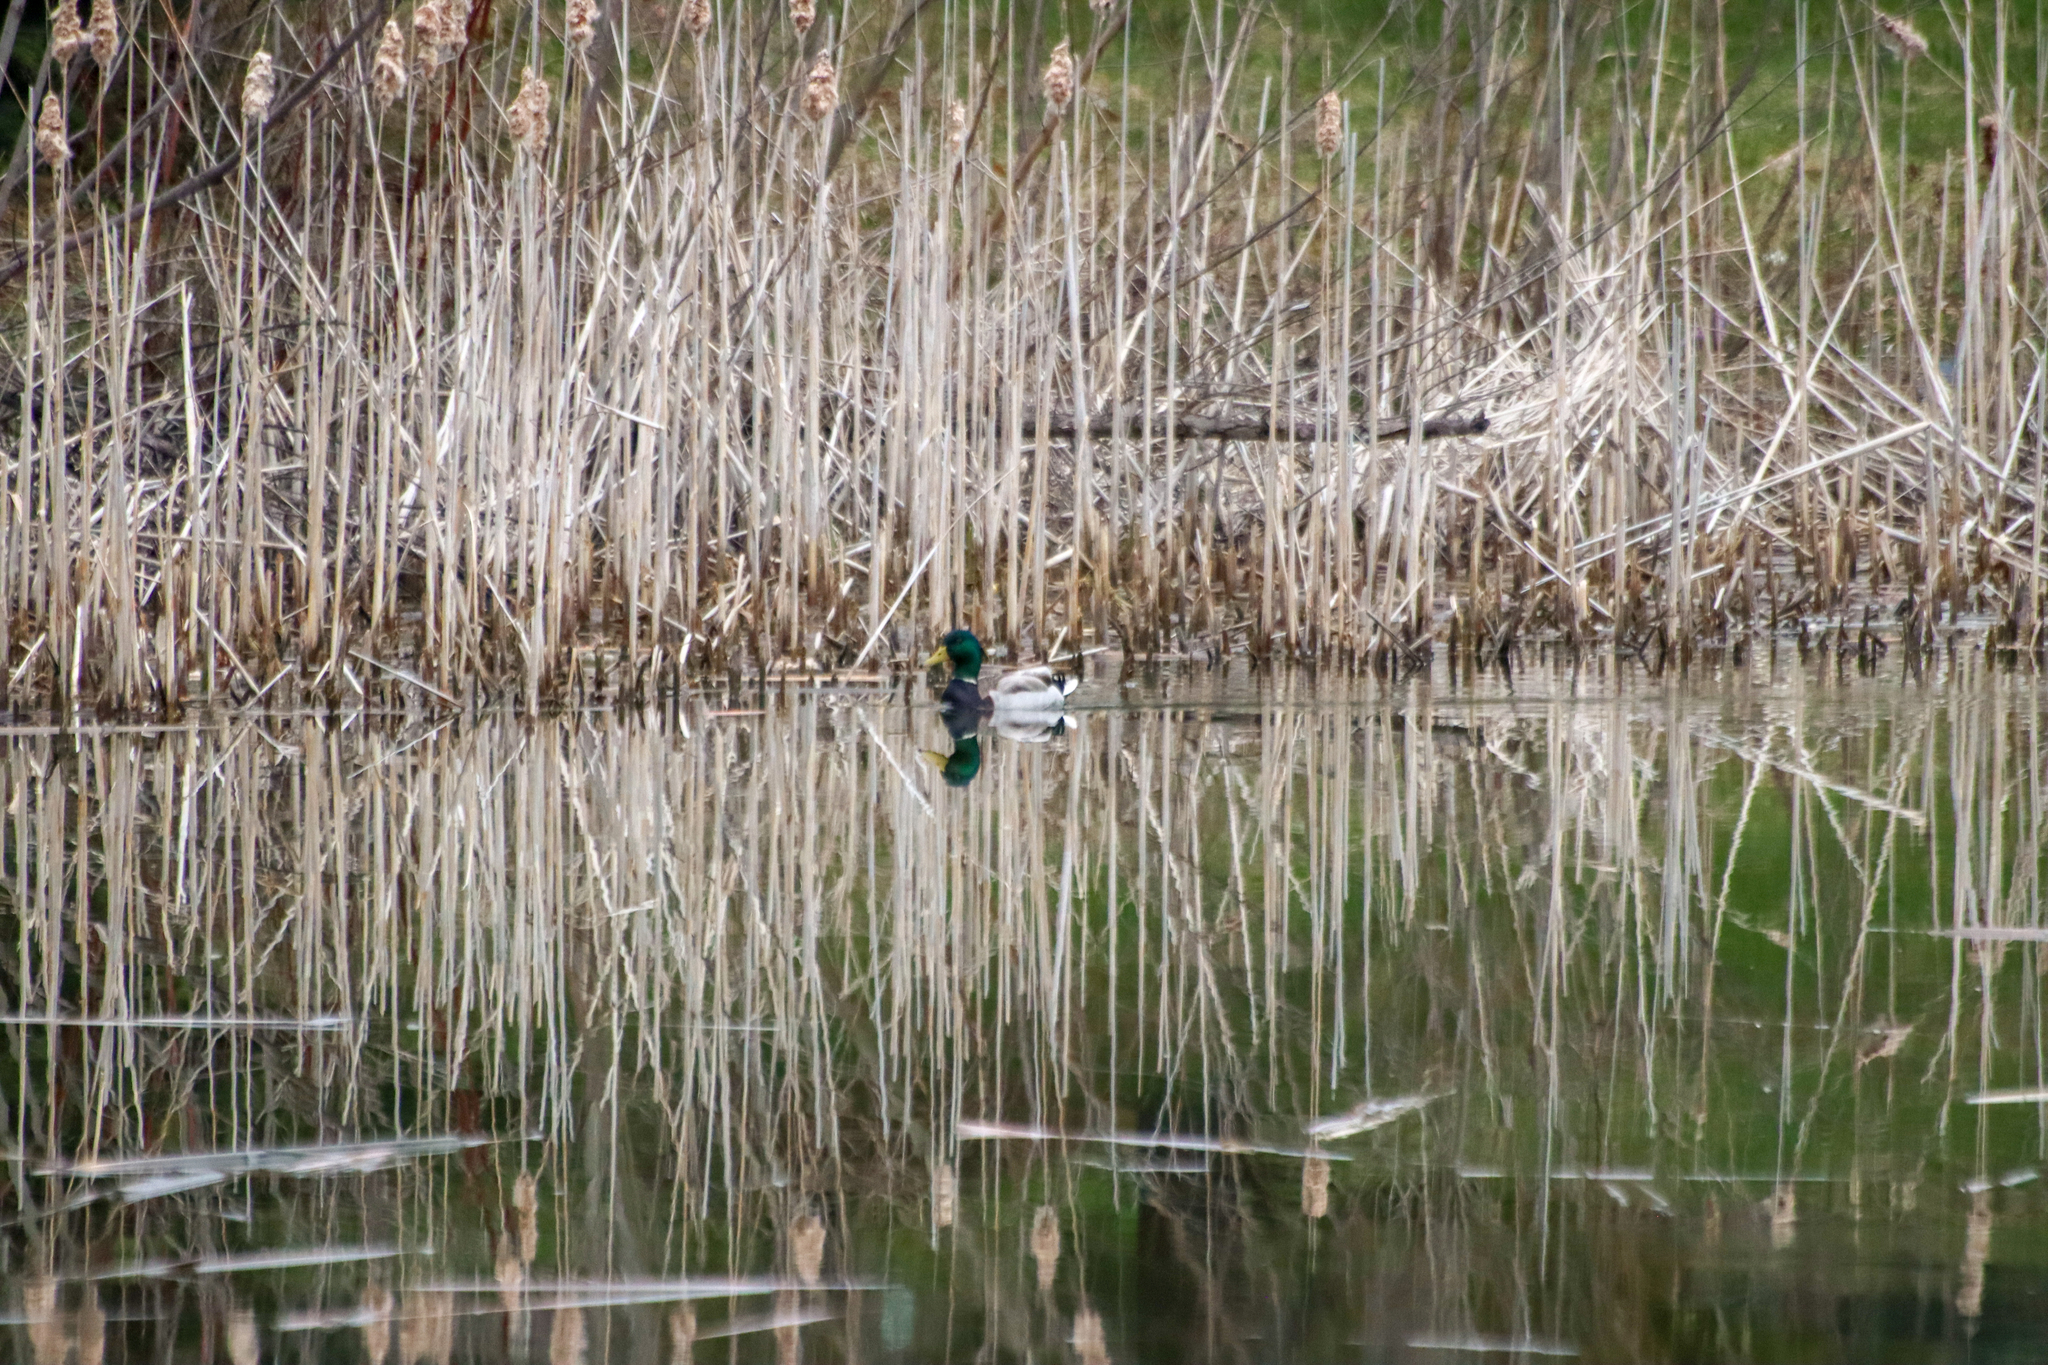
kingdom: Animalia
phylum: Chordata
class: Aves
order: Anseriformes
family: Anatidae
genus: Anas
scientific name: Anas platyrhynchos
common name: Mallard
